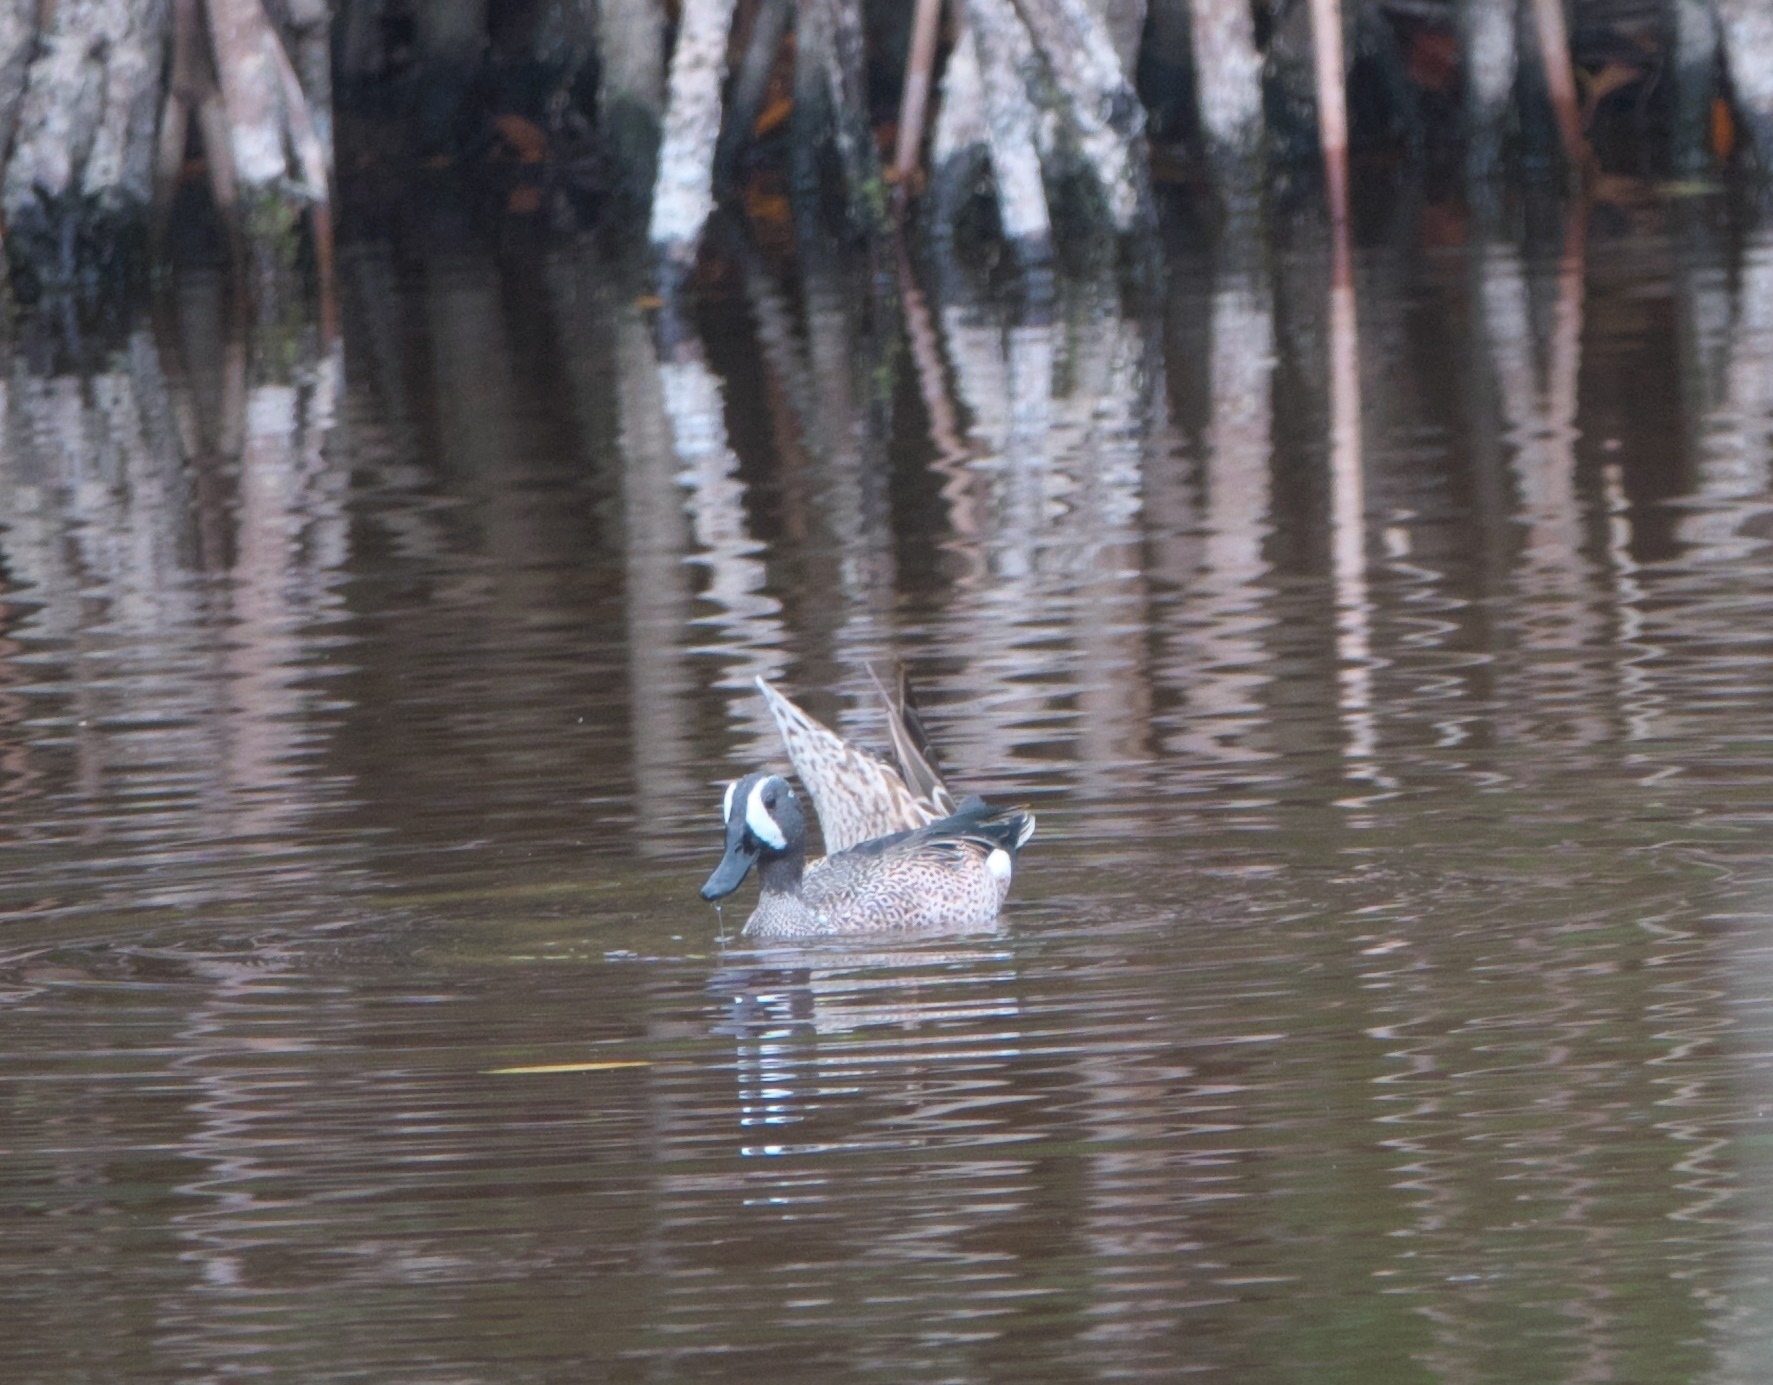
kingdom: Animalia
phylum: Chordata
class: Aves
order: Anseriformes
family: Anatidae
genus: Spatula
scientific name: Spatula discors
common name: Blue-winged teal
